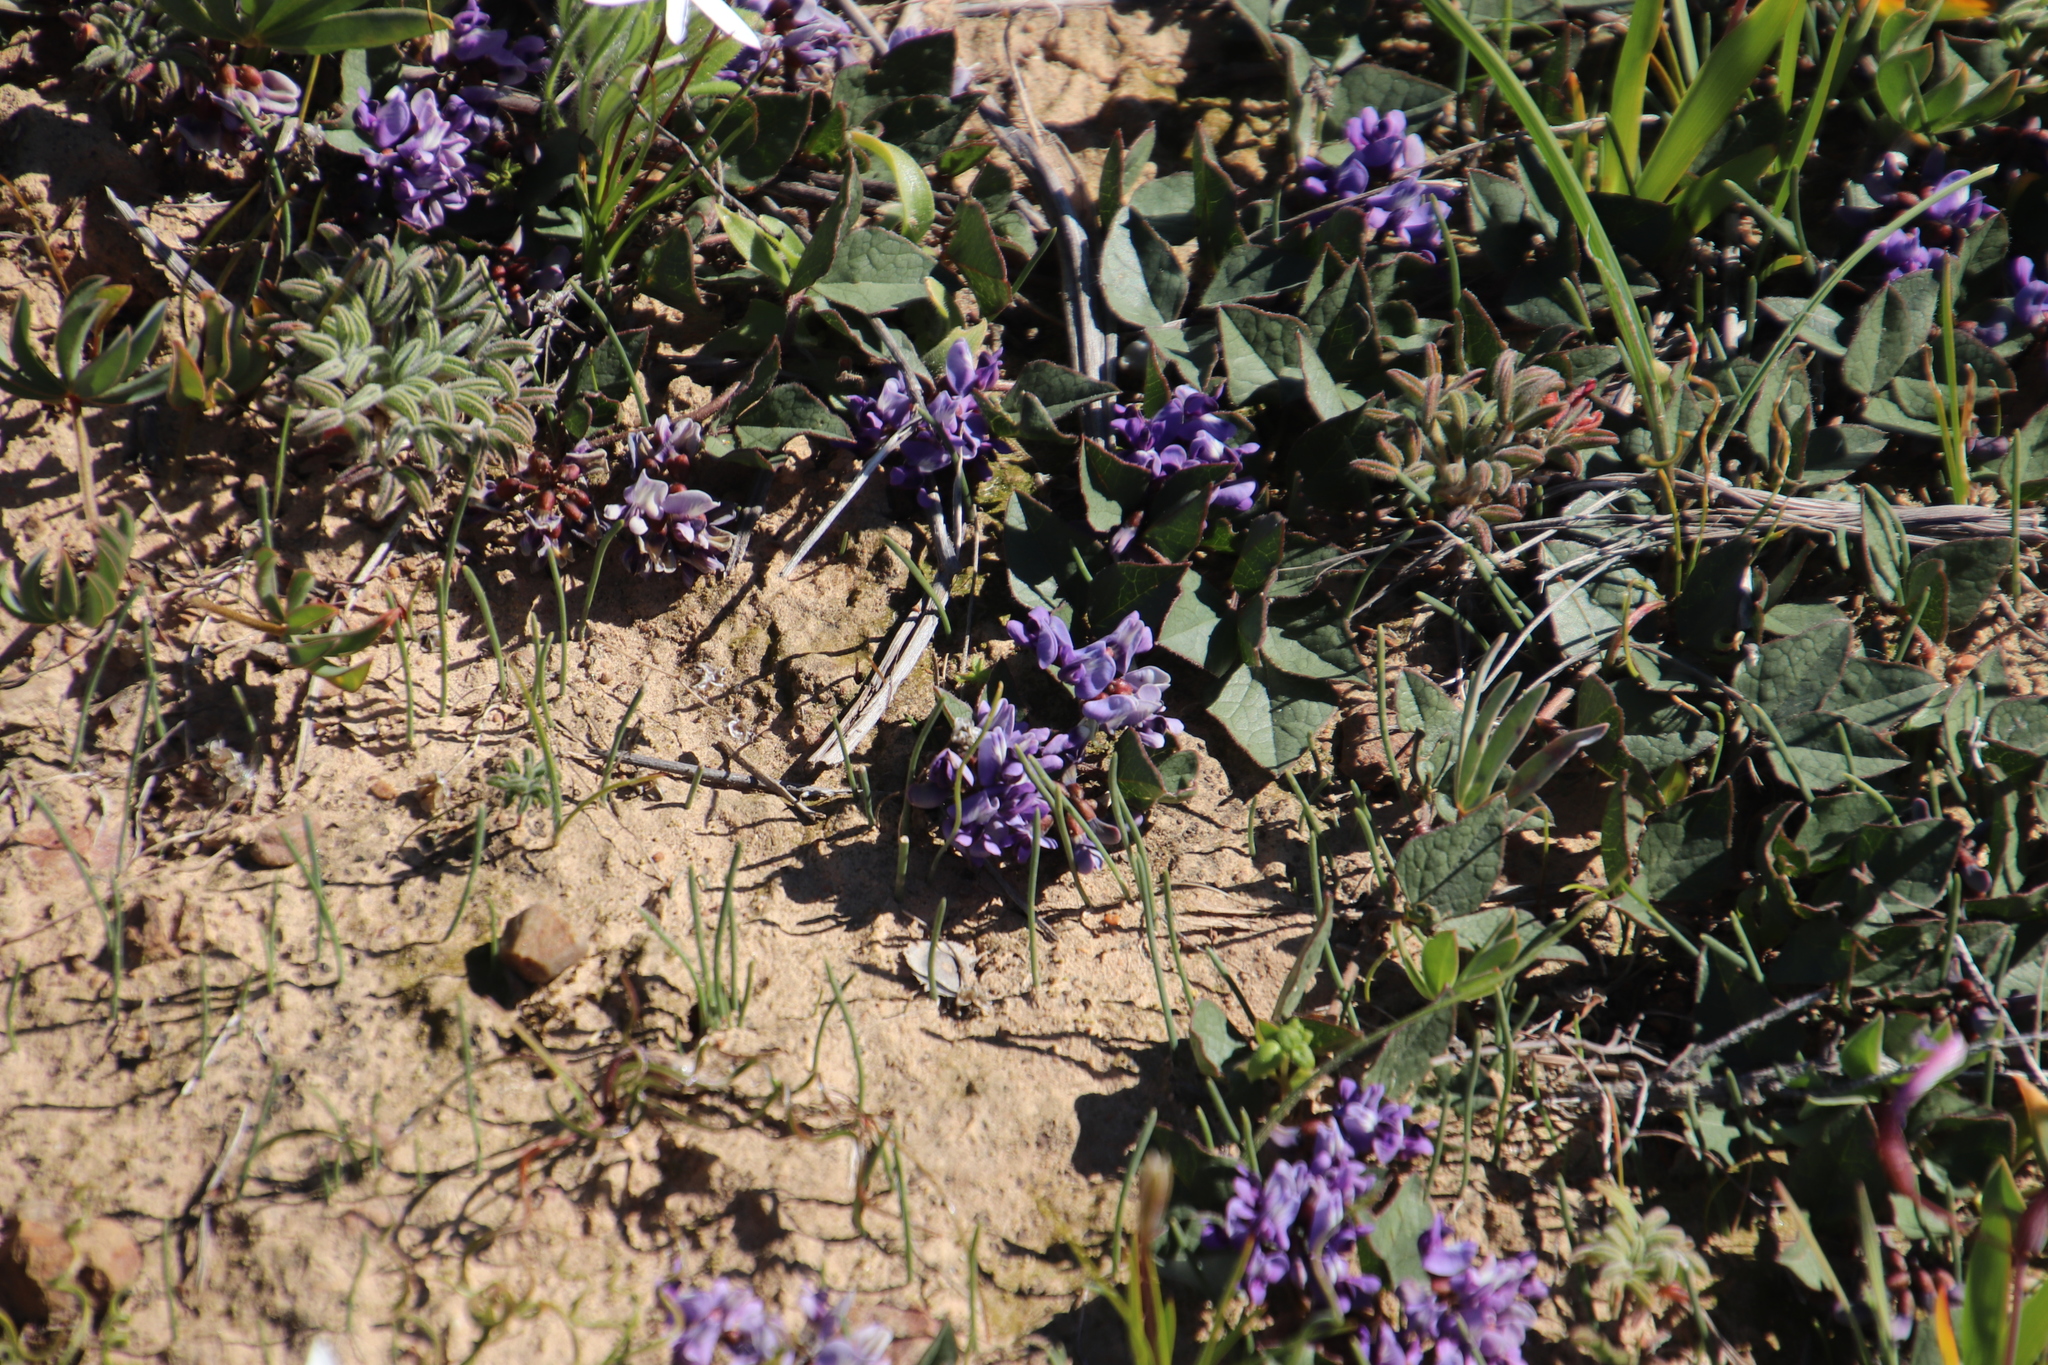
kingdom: Plantae
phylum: Tracheophyta
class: Magnoliopsida
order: Fabales
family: Fabaceae
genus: Dolichos
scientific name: Dolichos decumbens
